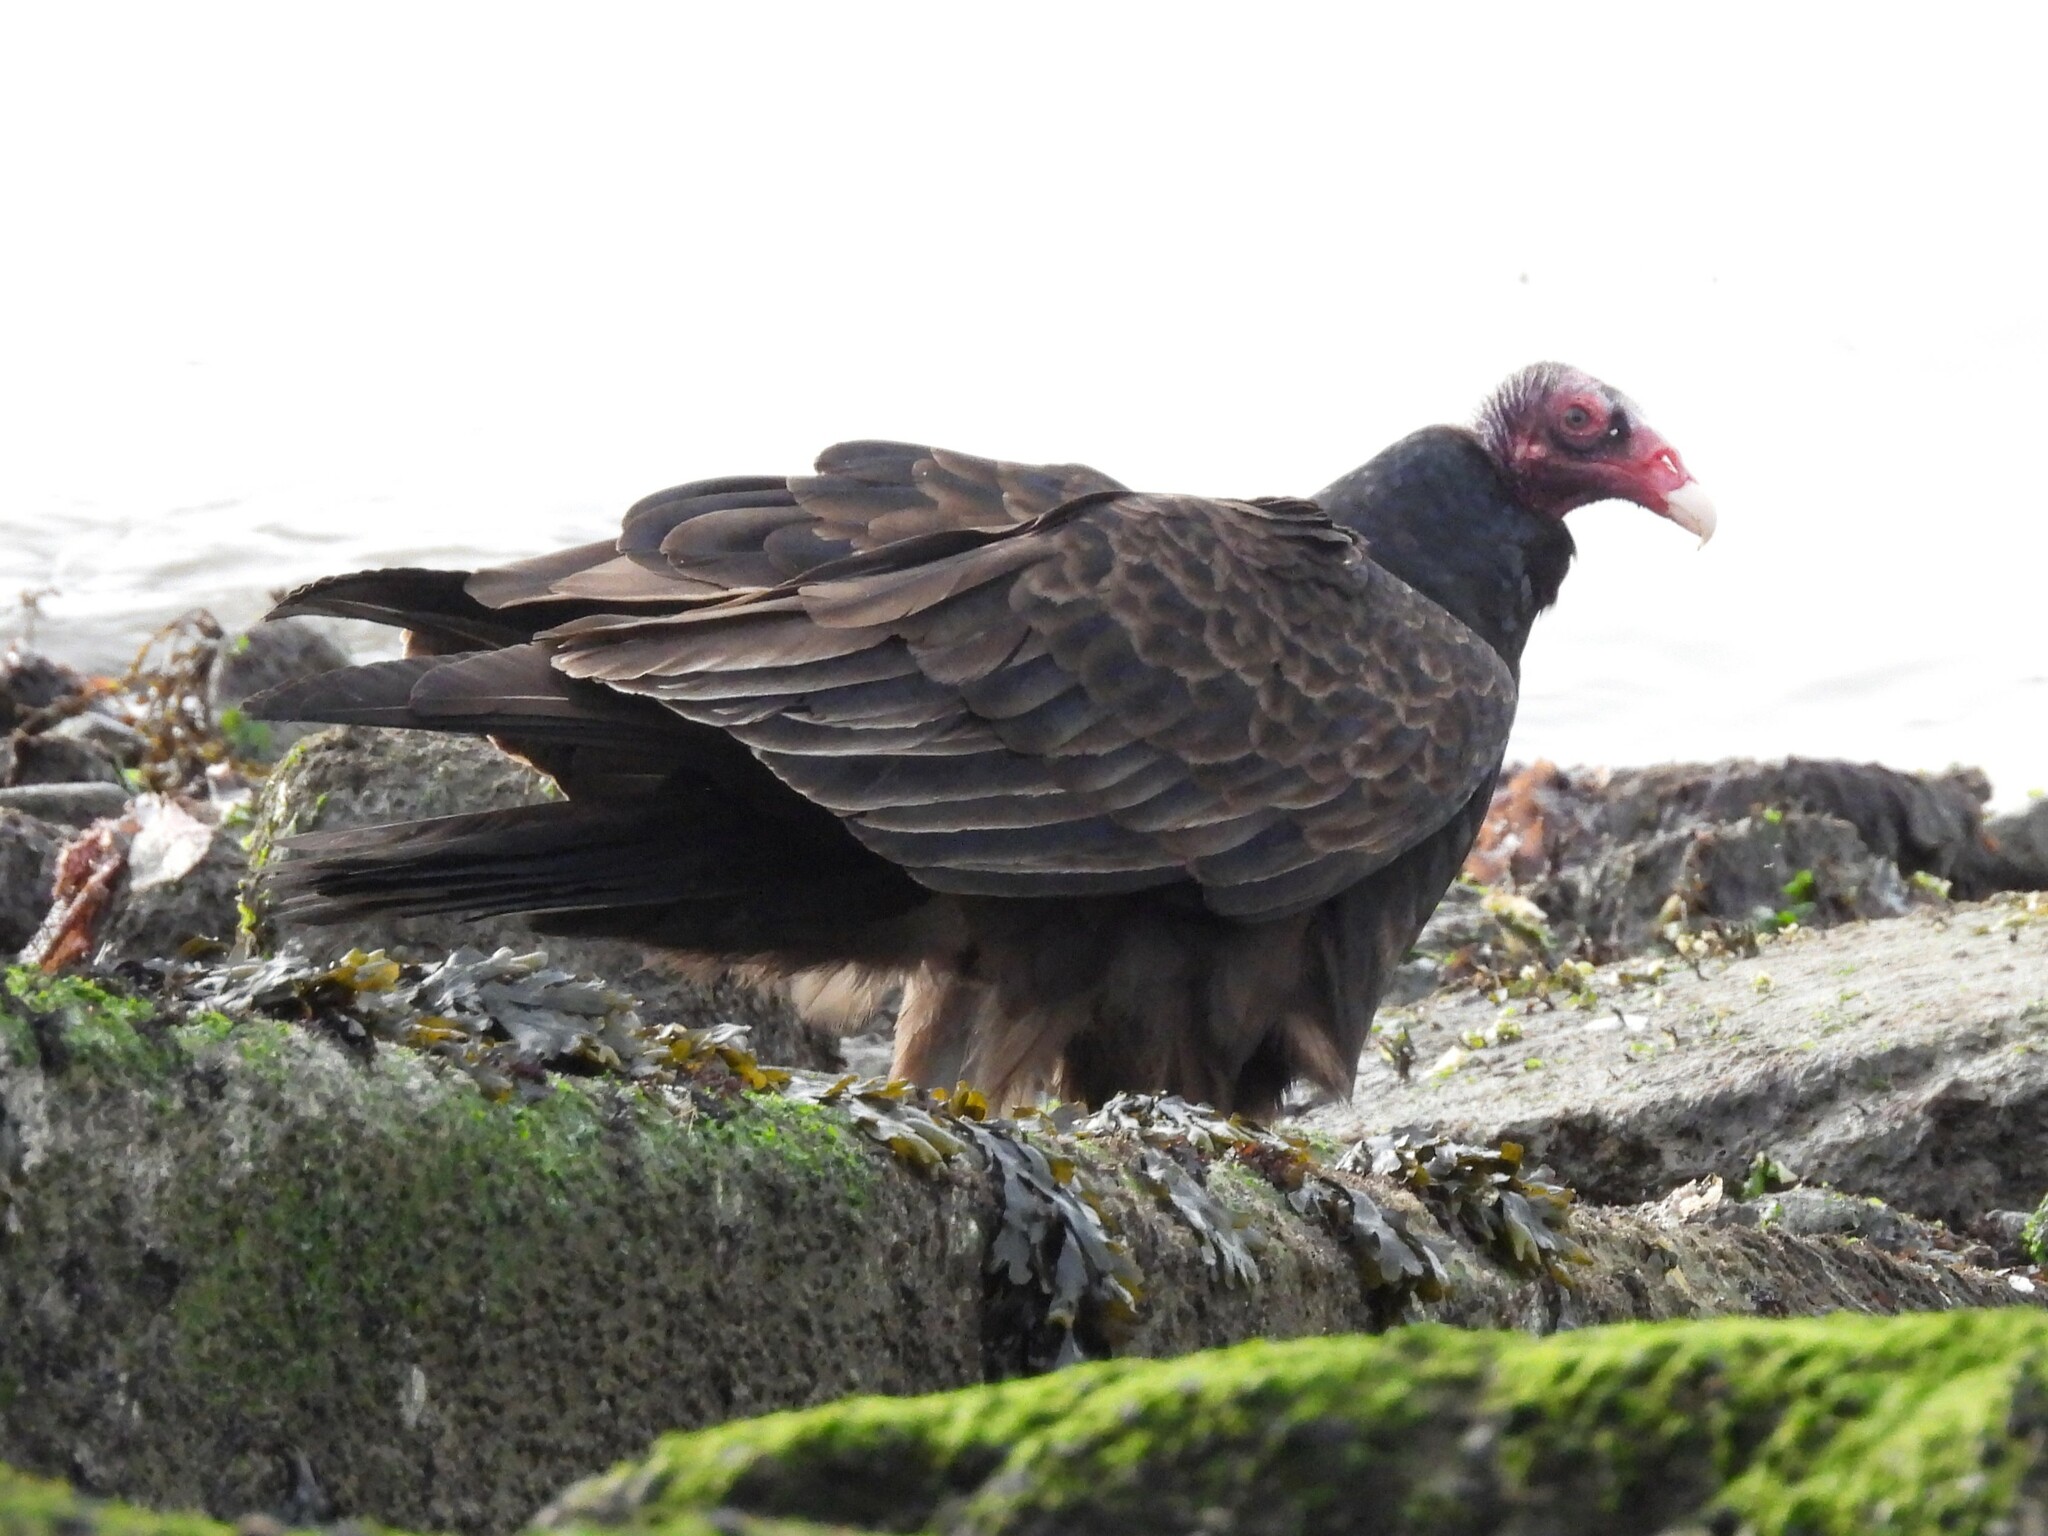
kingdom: Animalia
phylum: Chordata
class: Aves
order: Accipitriformes
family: Cathartidae
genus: Cathartes
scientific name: Cathartes aura
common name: Turkey vulture
